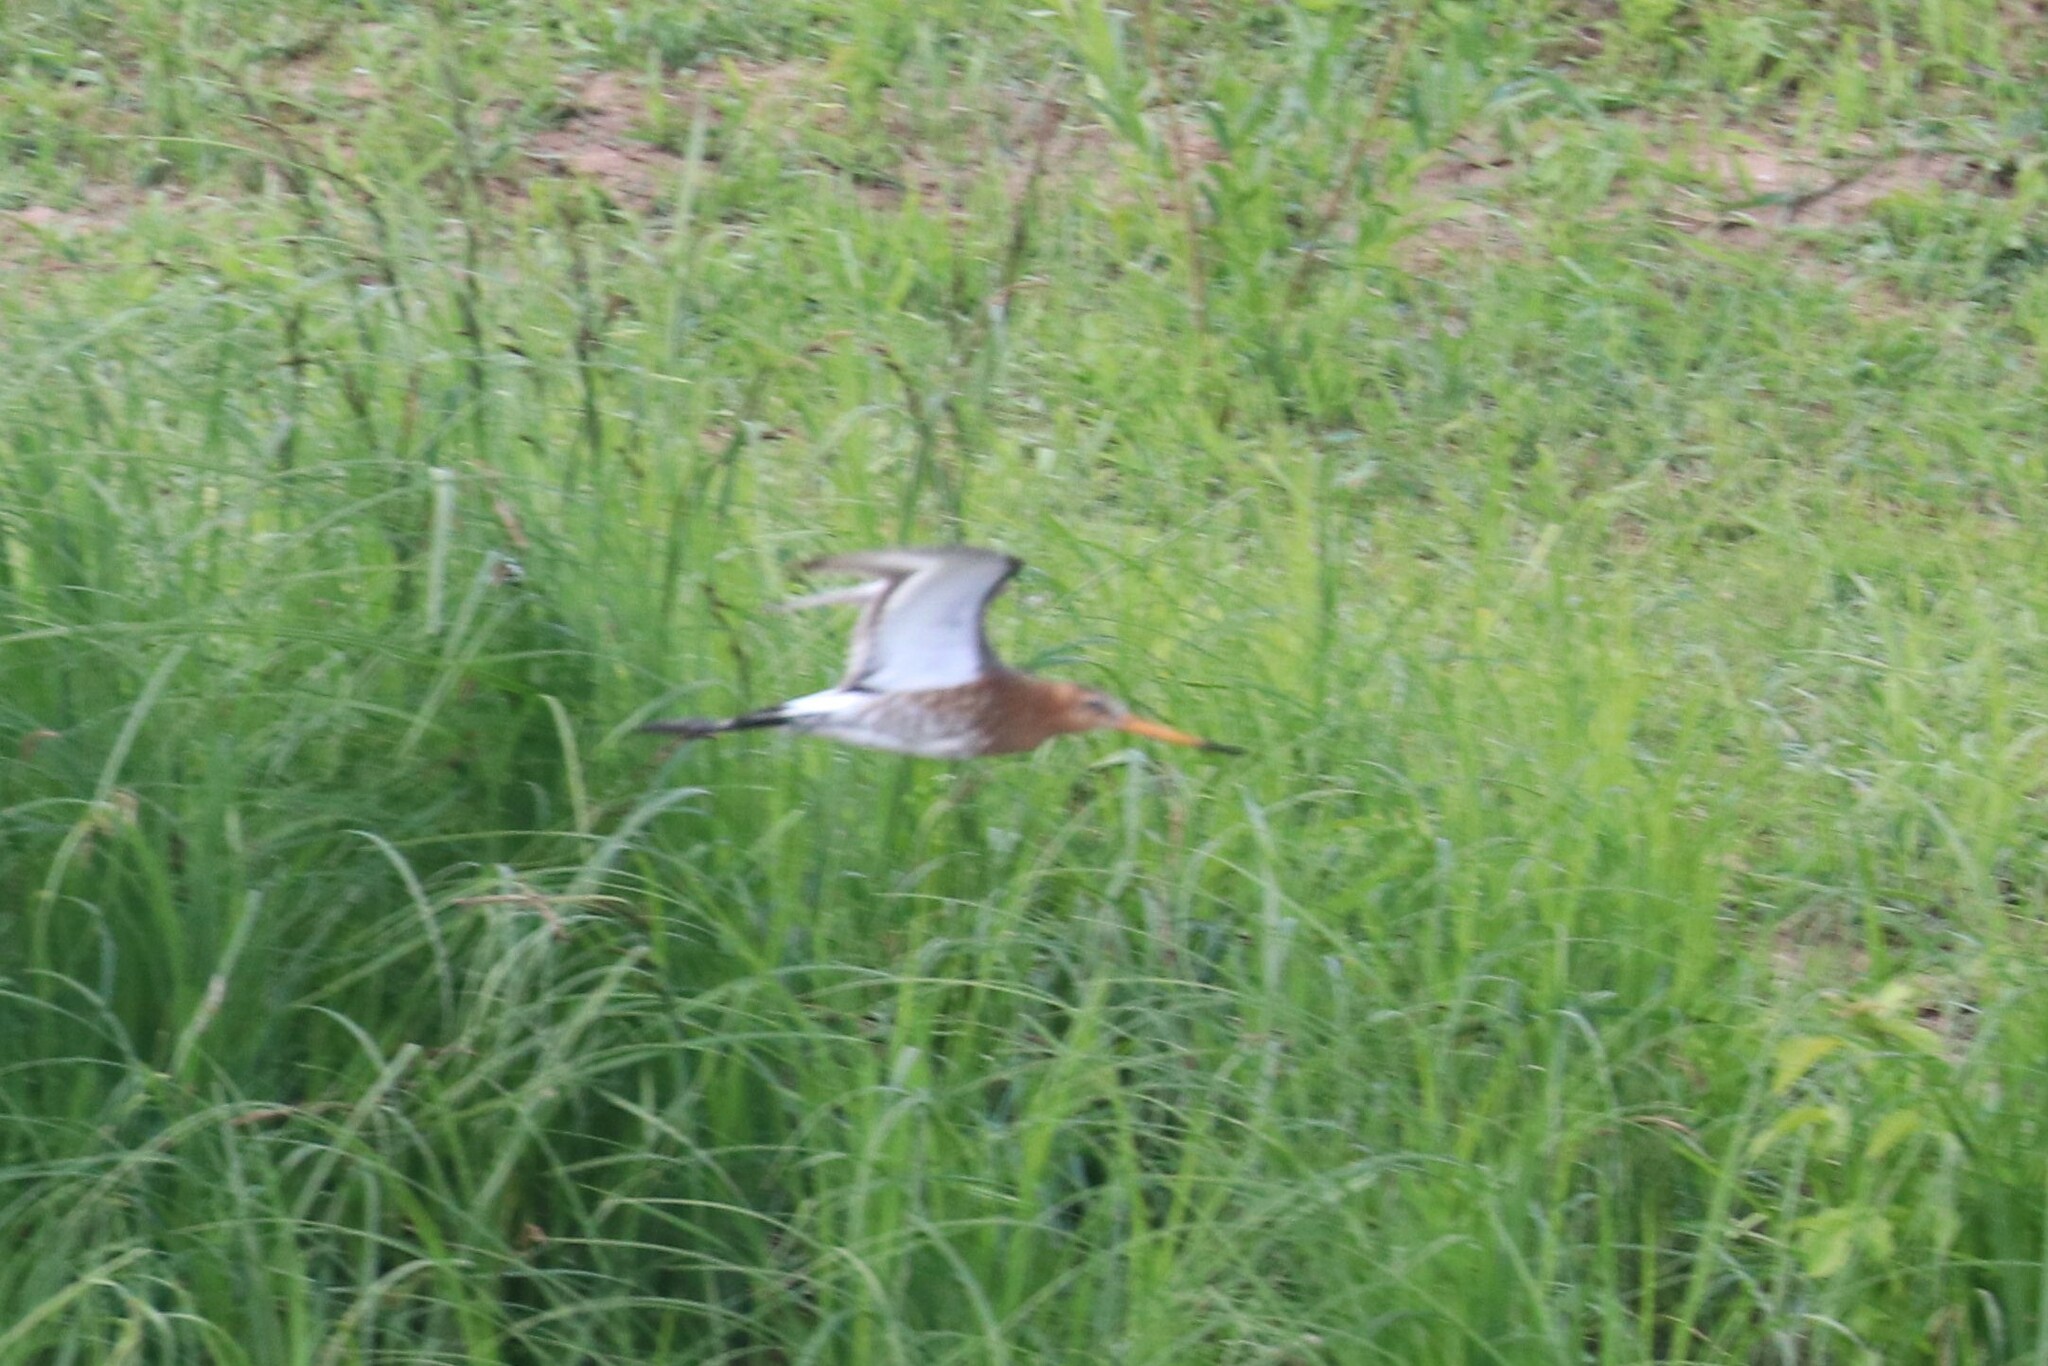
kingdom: Animalia
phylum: Chordata
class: Aves
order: Charadriiformes
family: Scolopacidae
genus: Limosa
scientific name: Limosa limosa
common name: Black-tailed godwit
